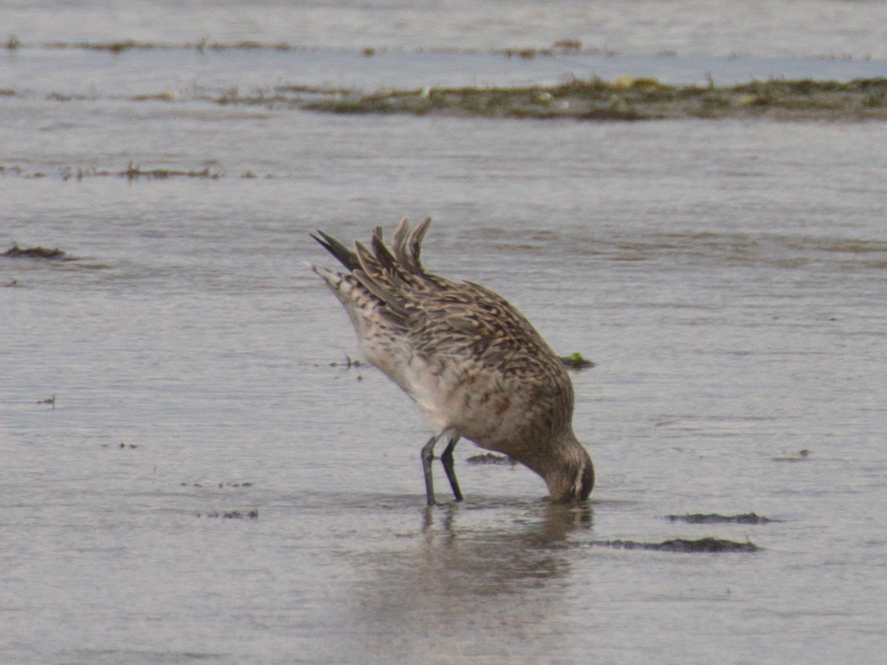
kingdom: Animalia
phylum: Chordata
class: Aves
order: Charadriiformes
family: Scolopacidae
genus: Limosa
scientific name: Limosa lapponica
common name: Bar-tailed godwit
